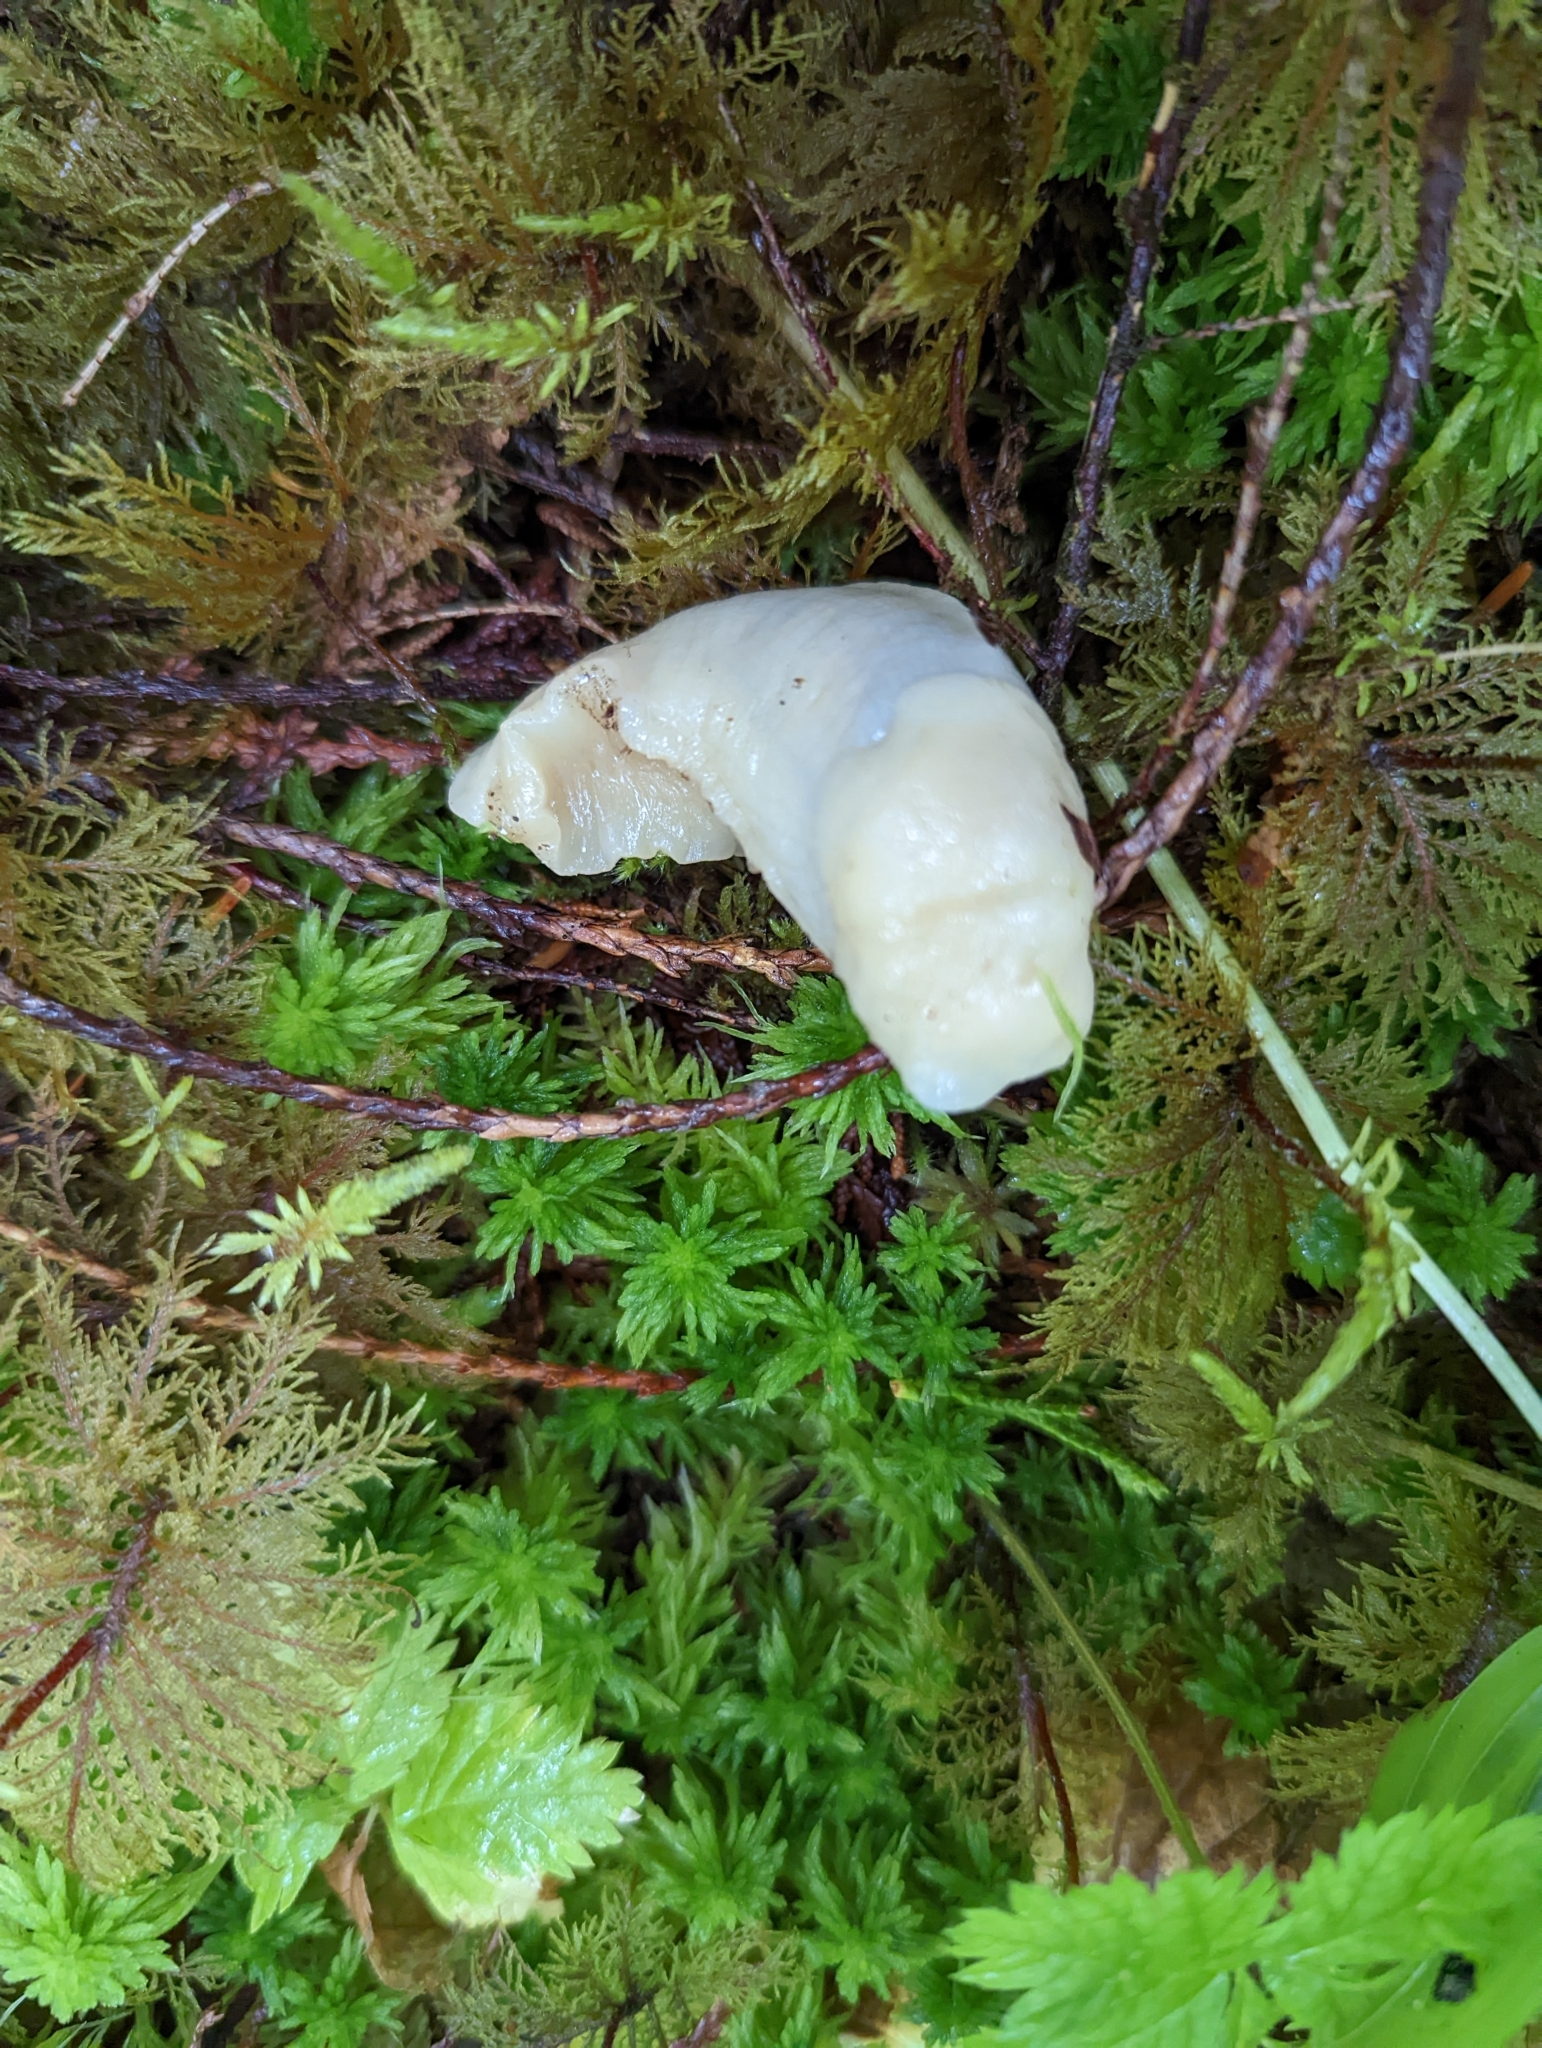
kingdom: Animalia
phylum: Mollusca
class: Gastropoda
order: Stylommatophora
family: Ariolimacidae
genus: Ariolimax
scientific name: Ariolimax columbianus
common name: Pacific banana slug
